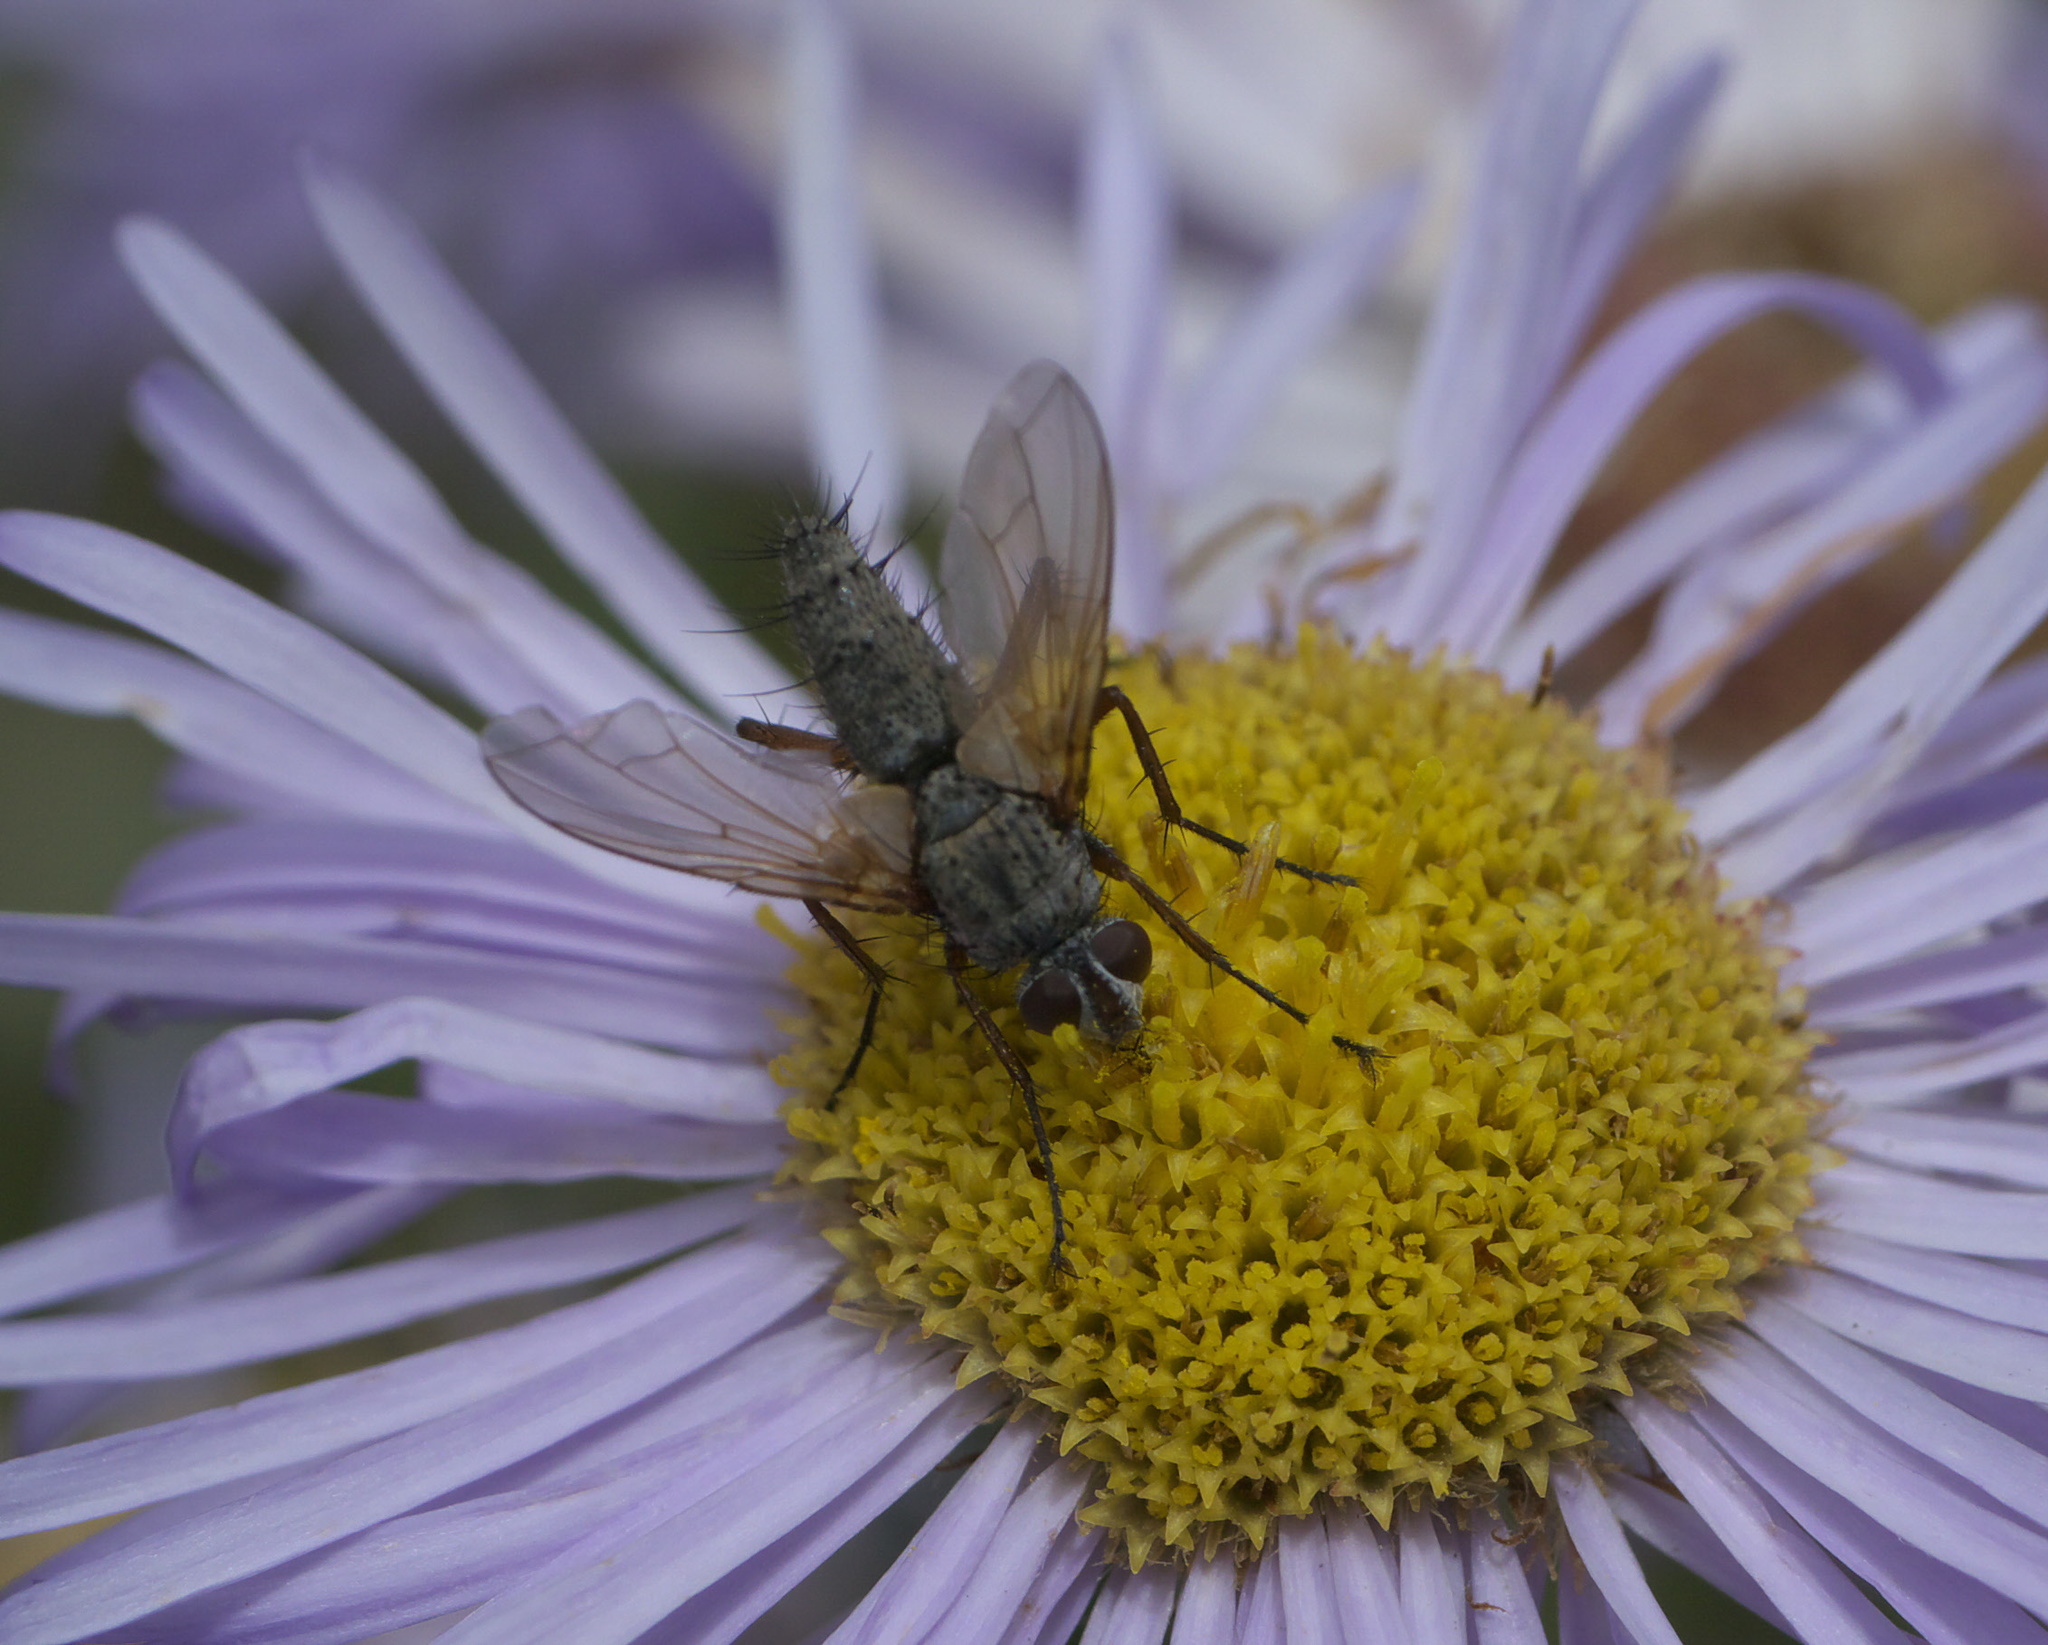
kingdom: Animalia
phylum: Arthropoda
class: Insecta
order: Diptera
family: Tachinidae
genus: Dinera
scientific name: Dinera grisescens
